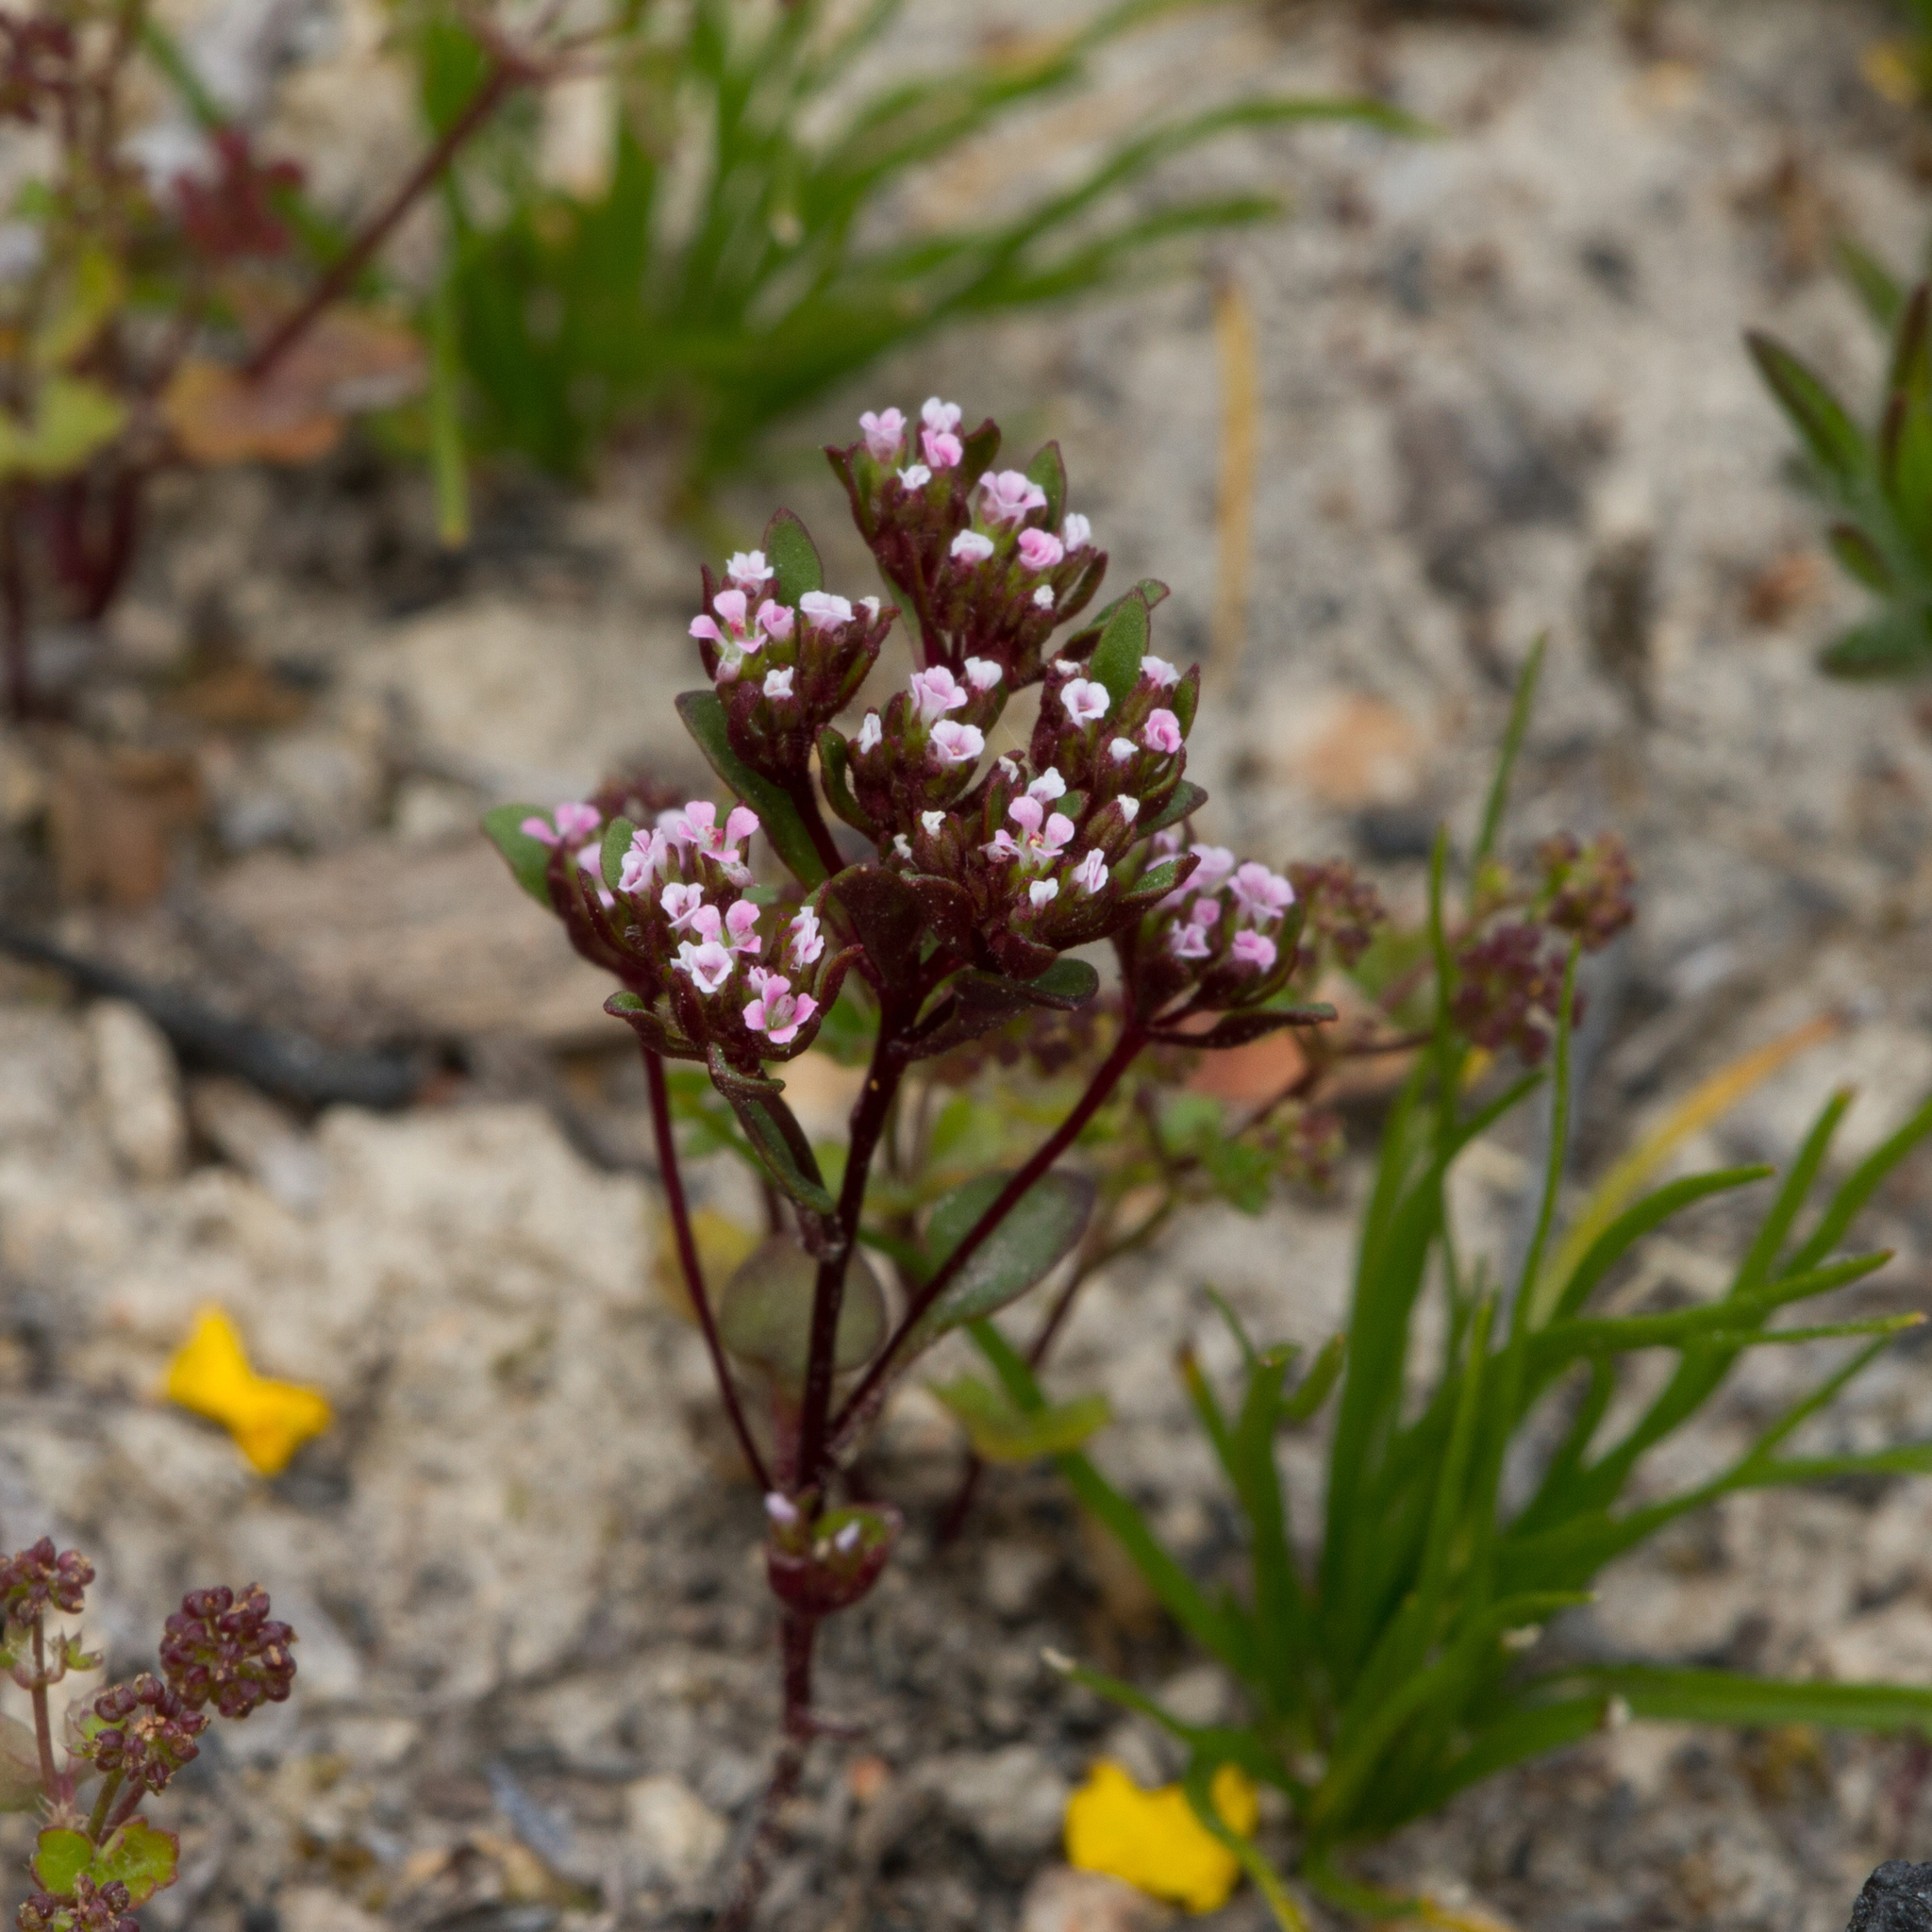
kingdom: Plantae
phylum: Tracheophyta
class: Magnoliopsida
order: Asterales
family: Stylidiaceae
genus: Levenhookia
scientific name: Levenhookia pusilla
